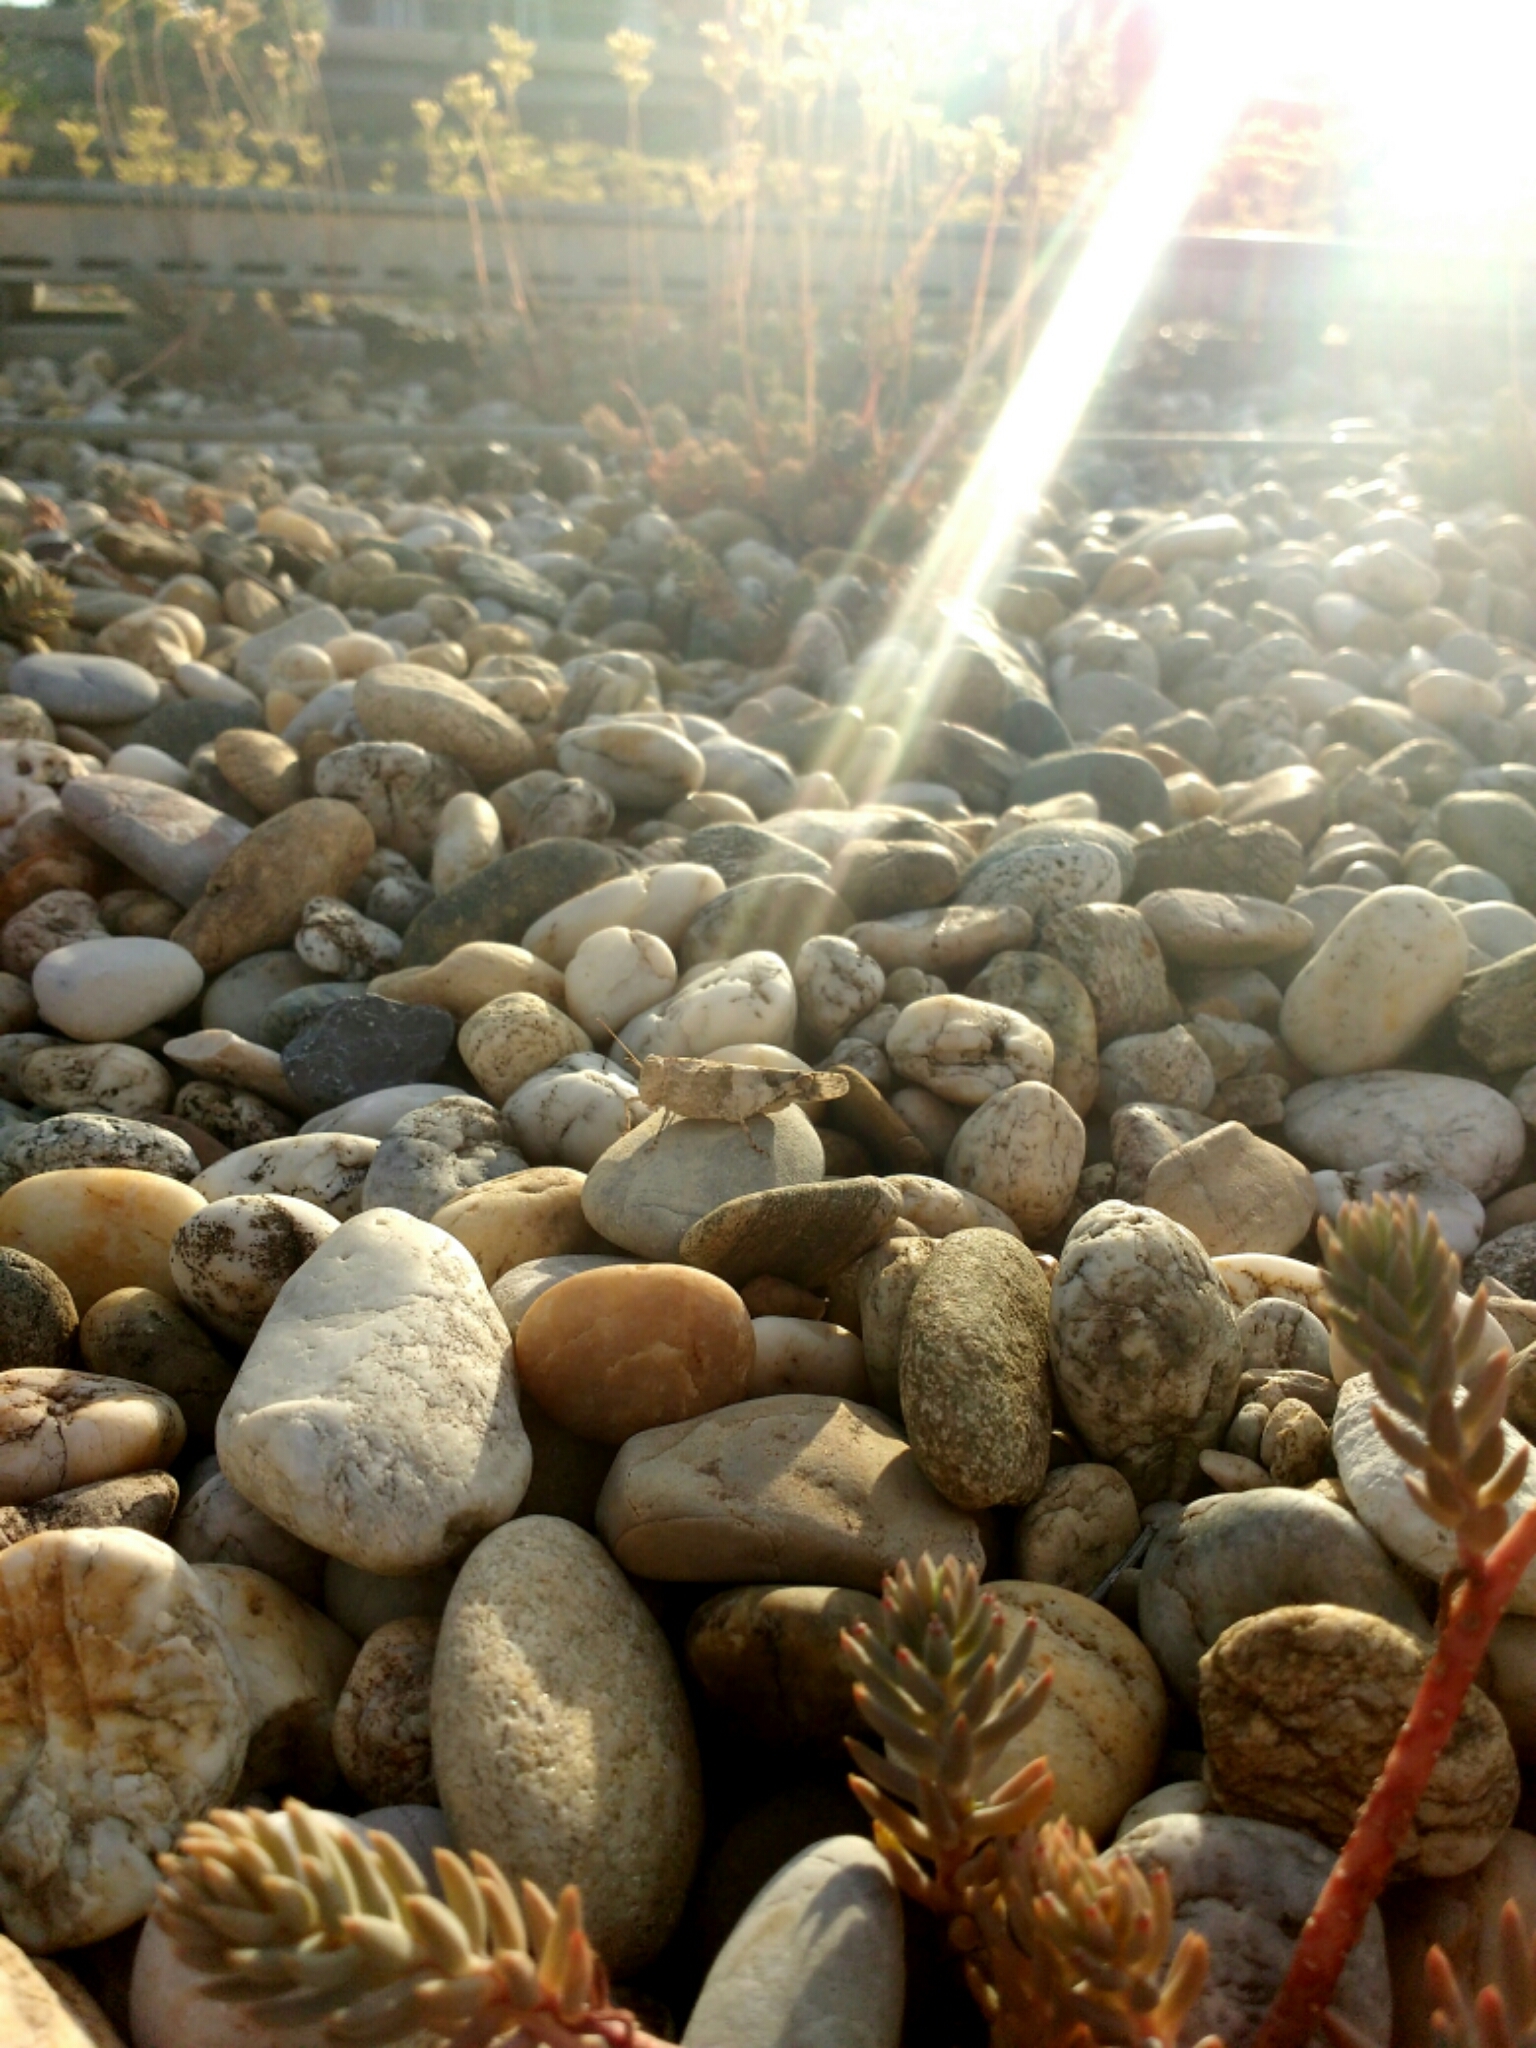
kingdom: Animalia
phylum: Arthropoda
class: Insecta
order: Orthoptera
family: Acrididae
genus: Oedipoda
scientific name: Oedipoda caerulescens
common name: Blue-winged grasshopper
